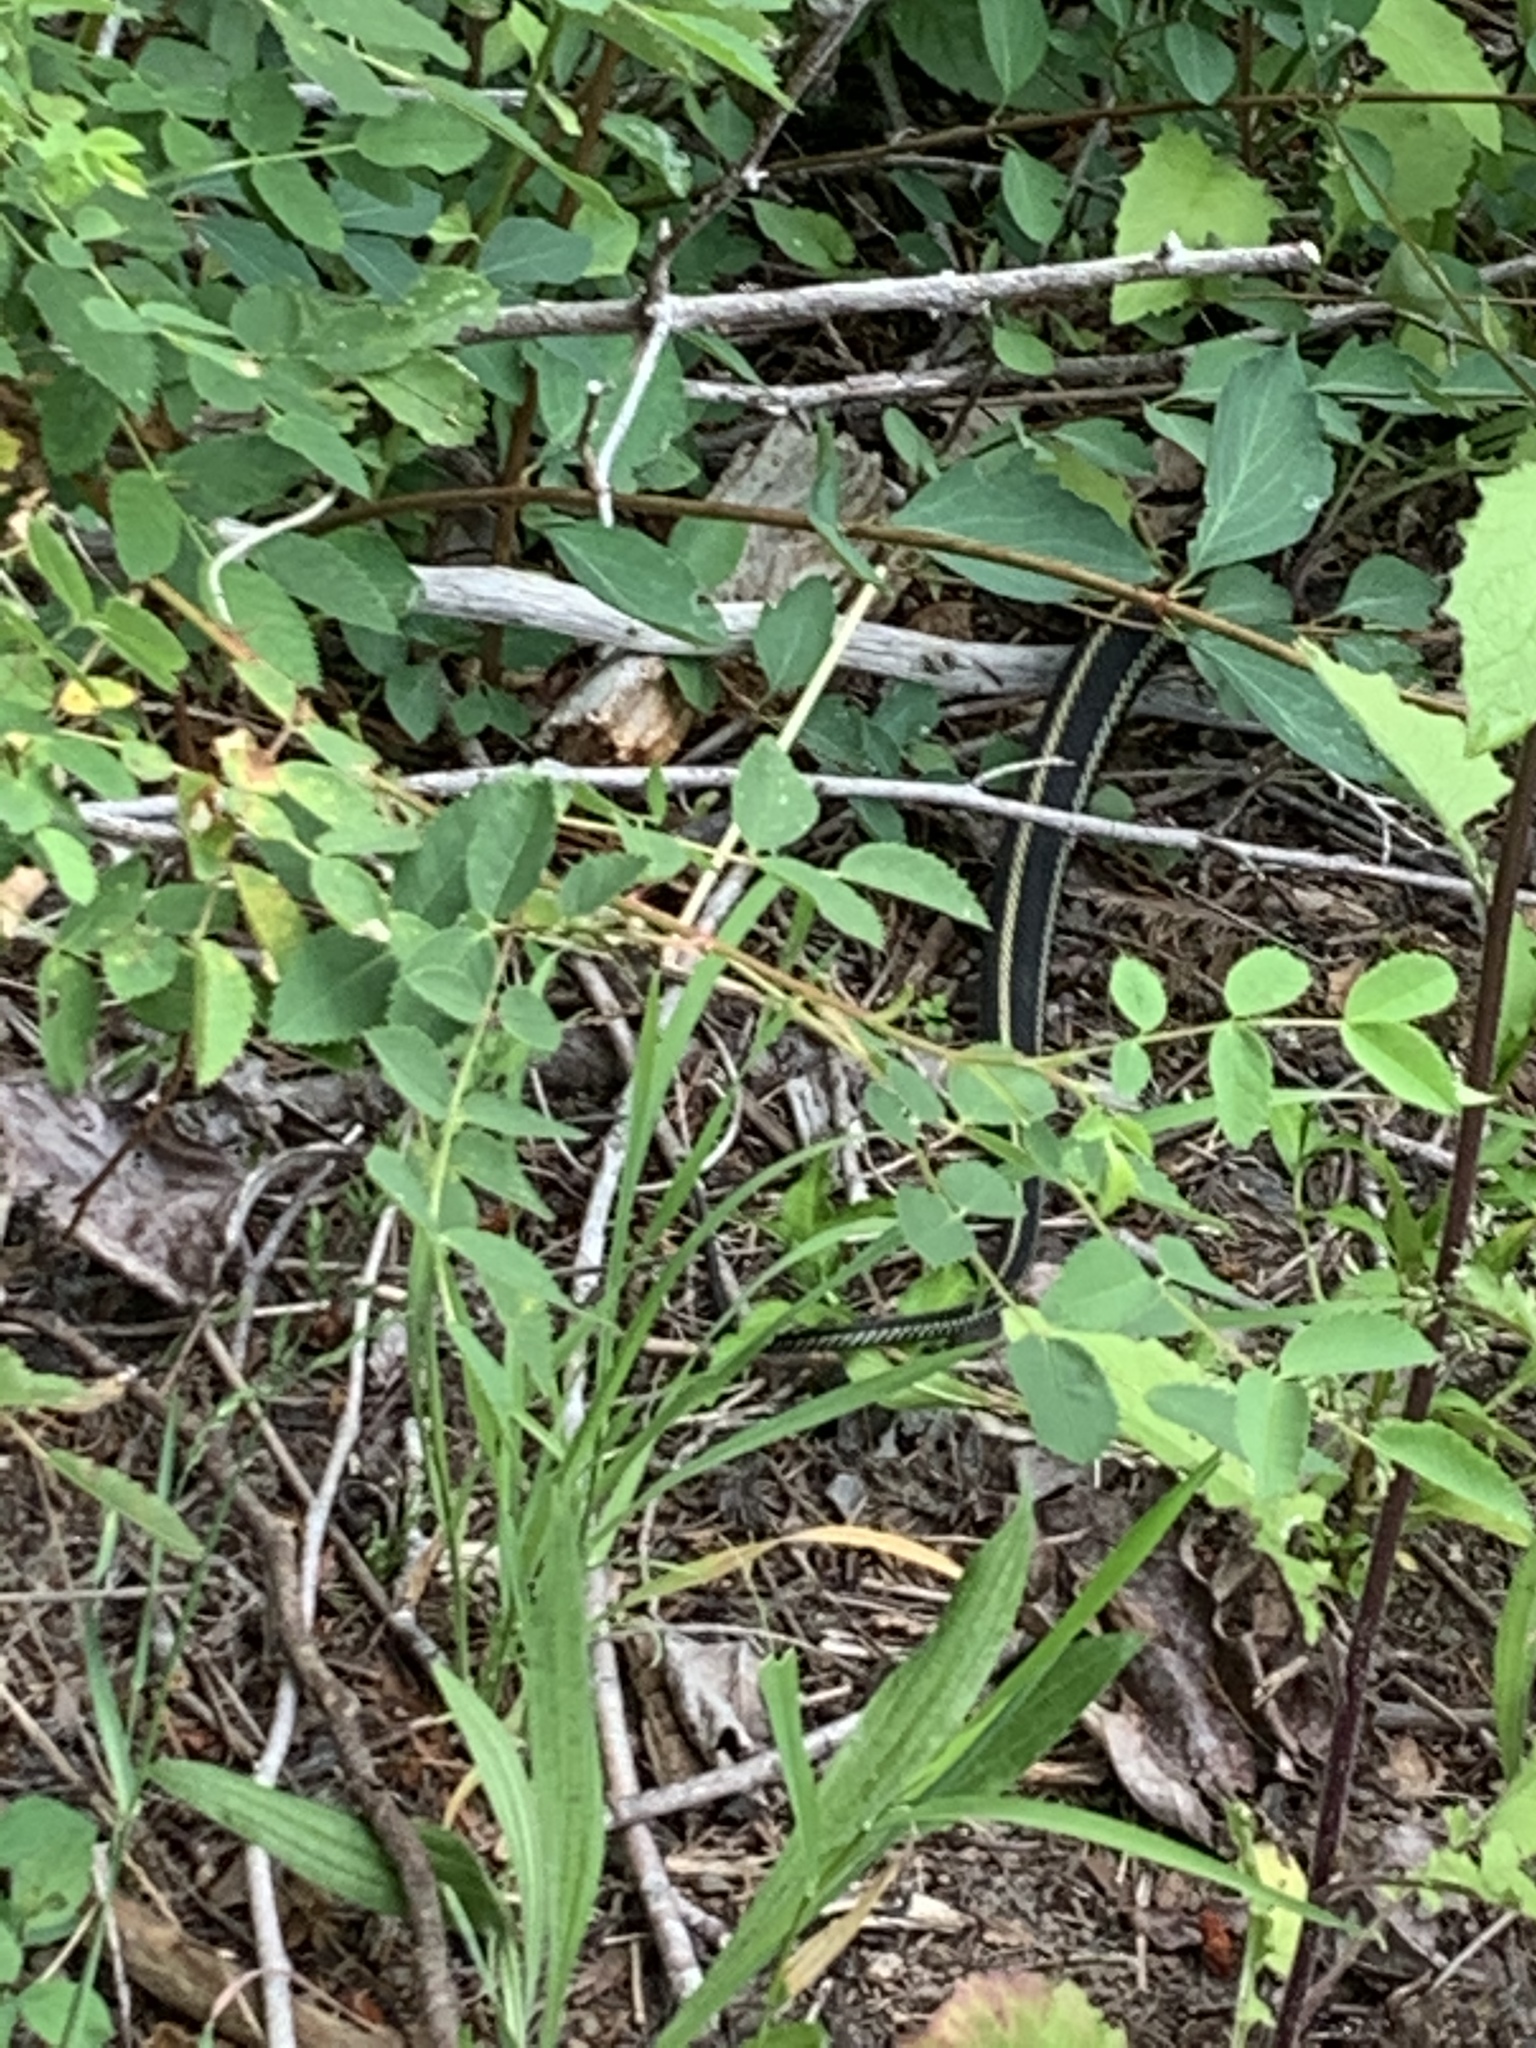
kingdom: Animalia
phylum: Chordata
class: Squamata
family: Colubridae
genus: Thamnophis
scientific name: Thamnophis sirtalis
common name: Common garter snake
